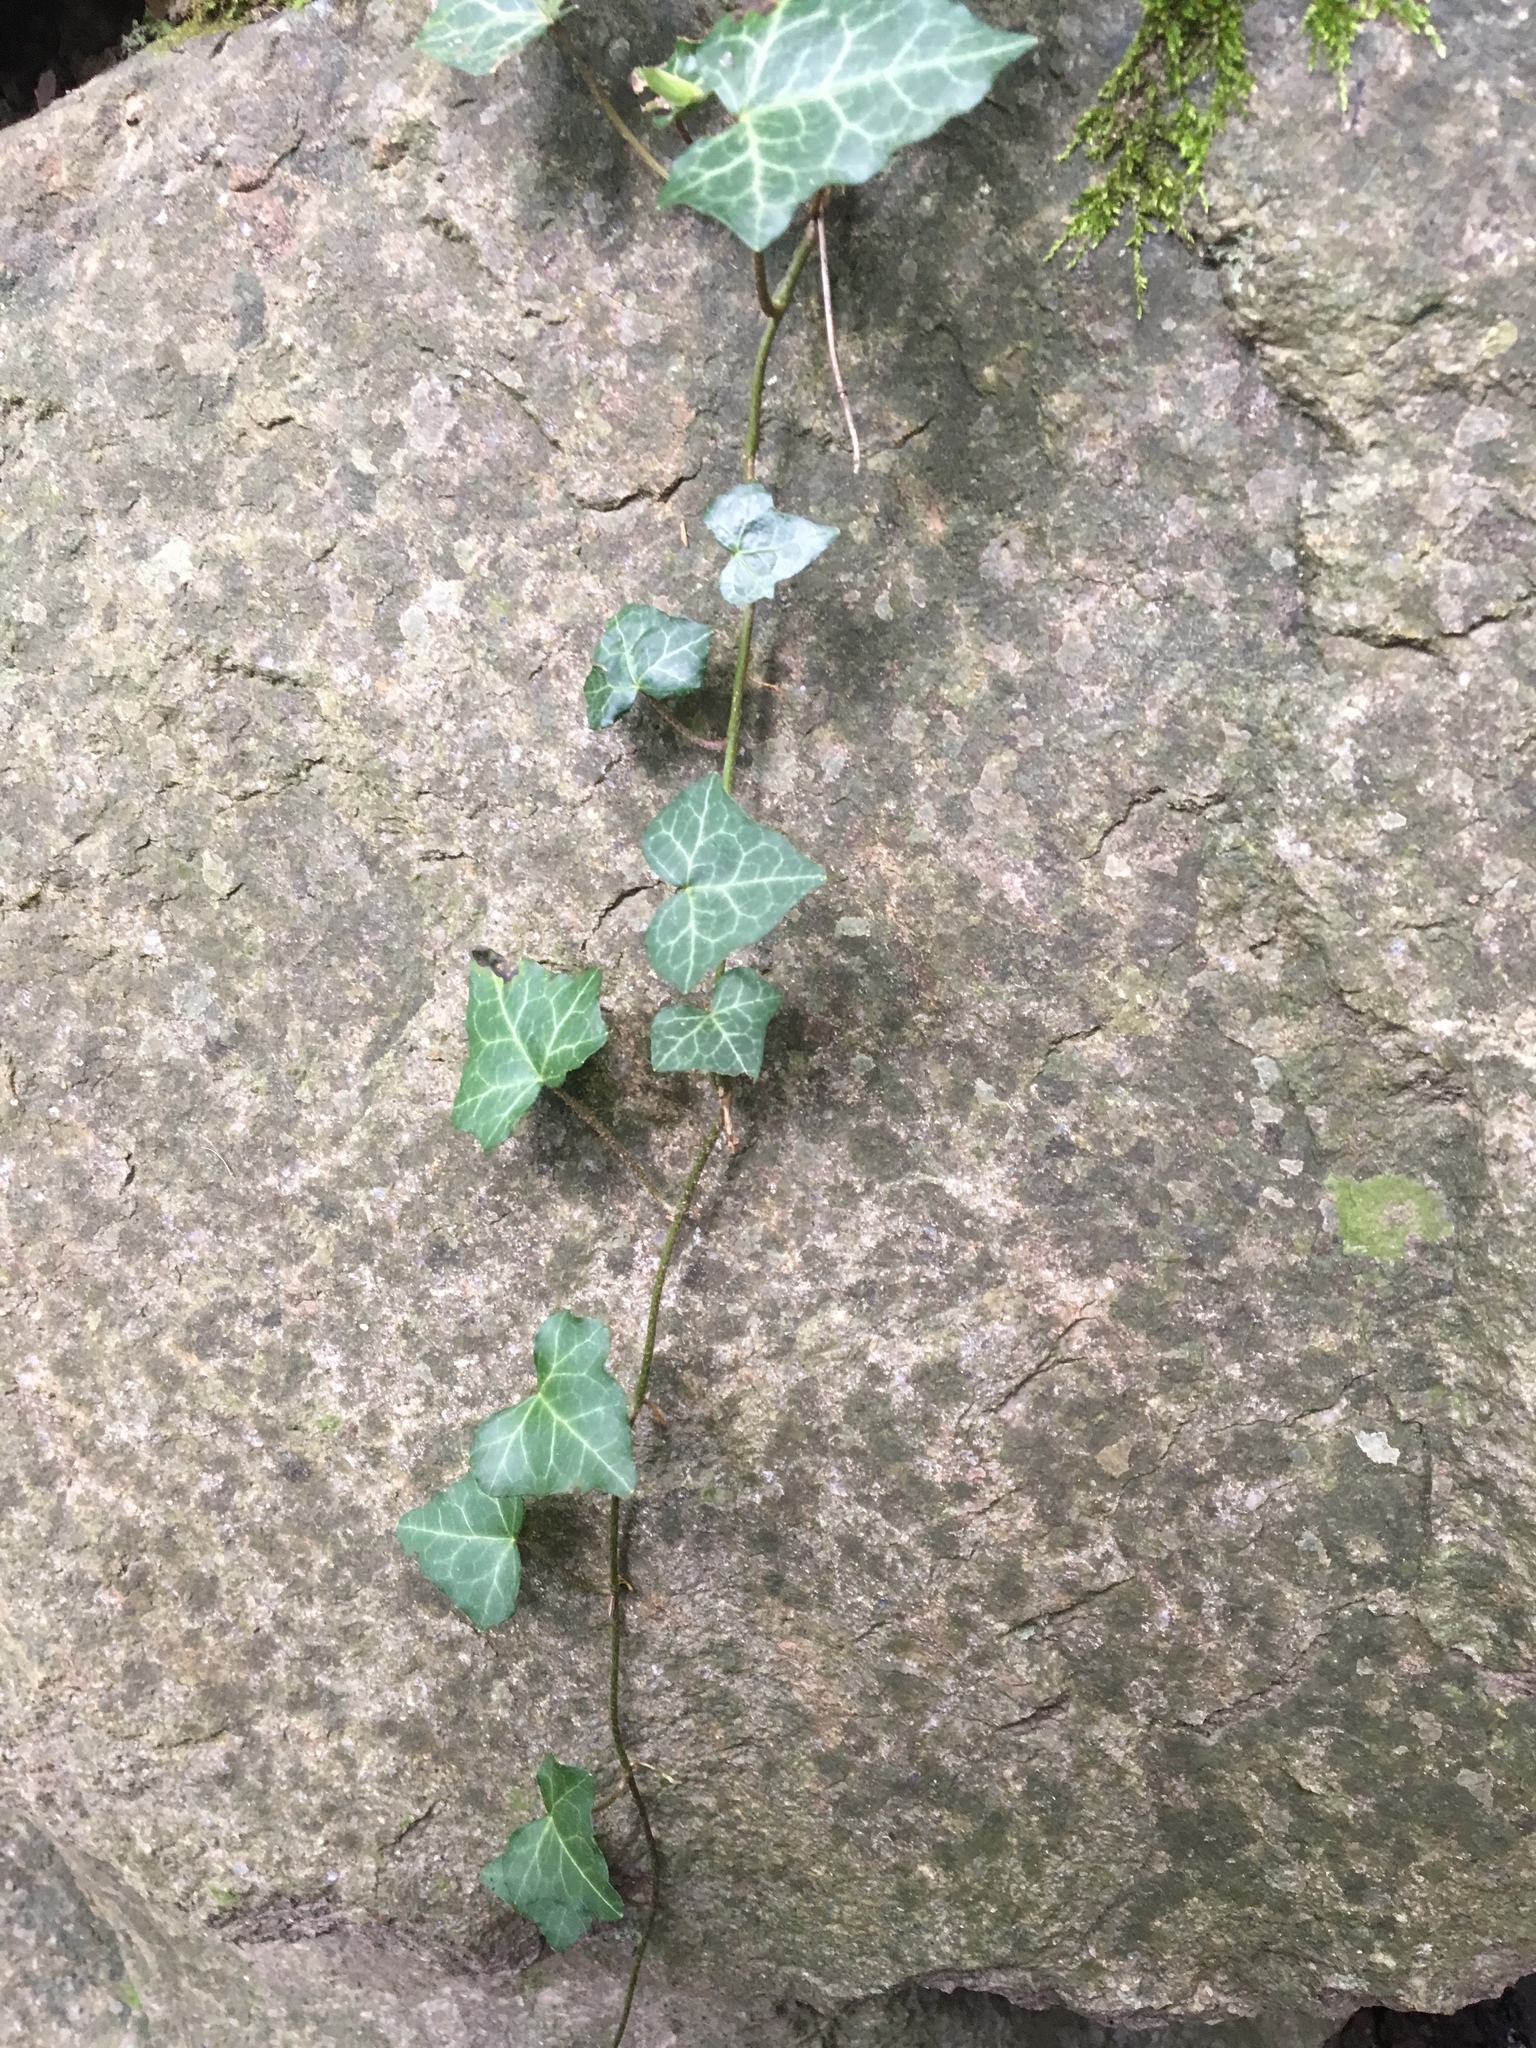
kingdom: Plantae
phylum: Tracheophyta
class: Magnoliopsida
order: Apiales
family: Araliaceae
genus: Hedera
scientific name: Hedera helix
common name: Ivy
